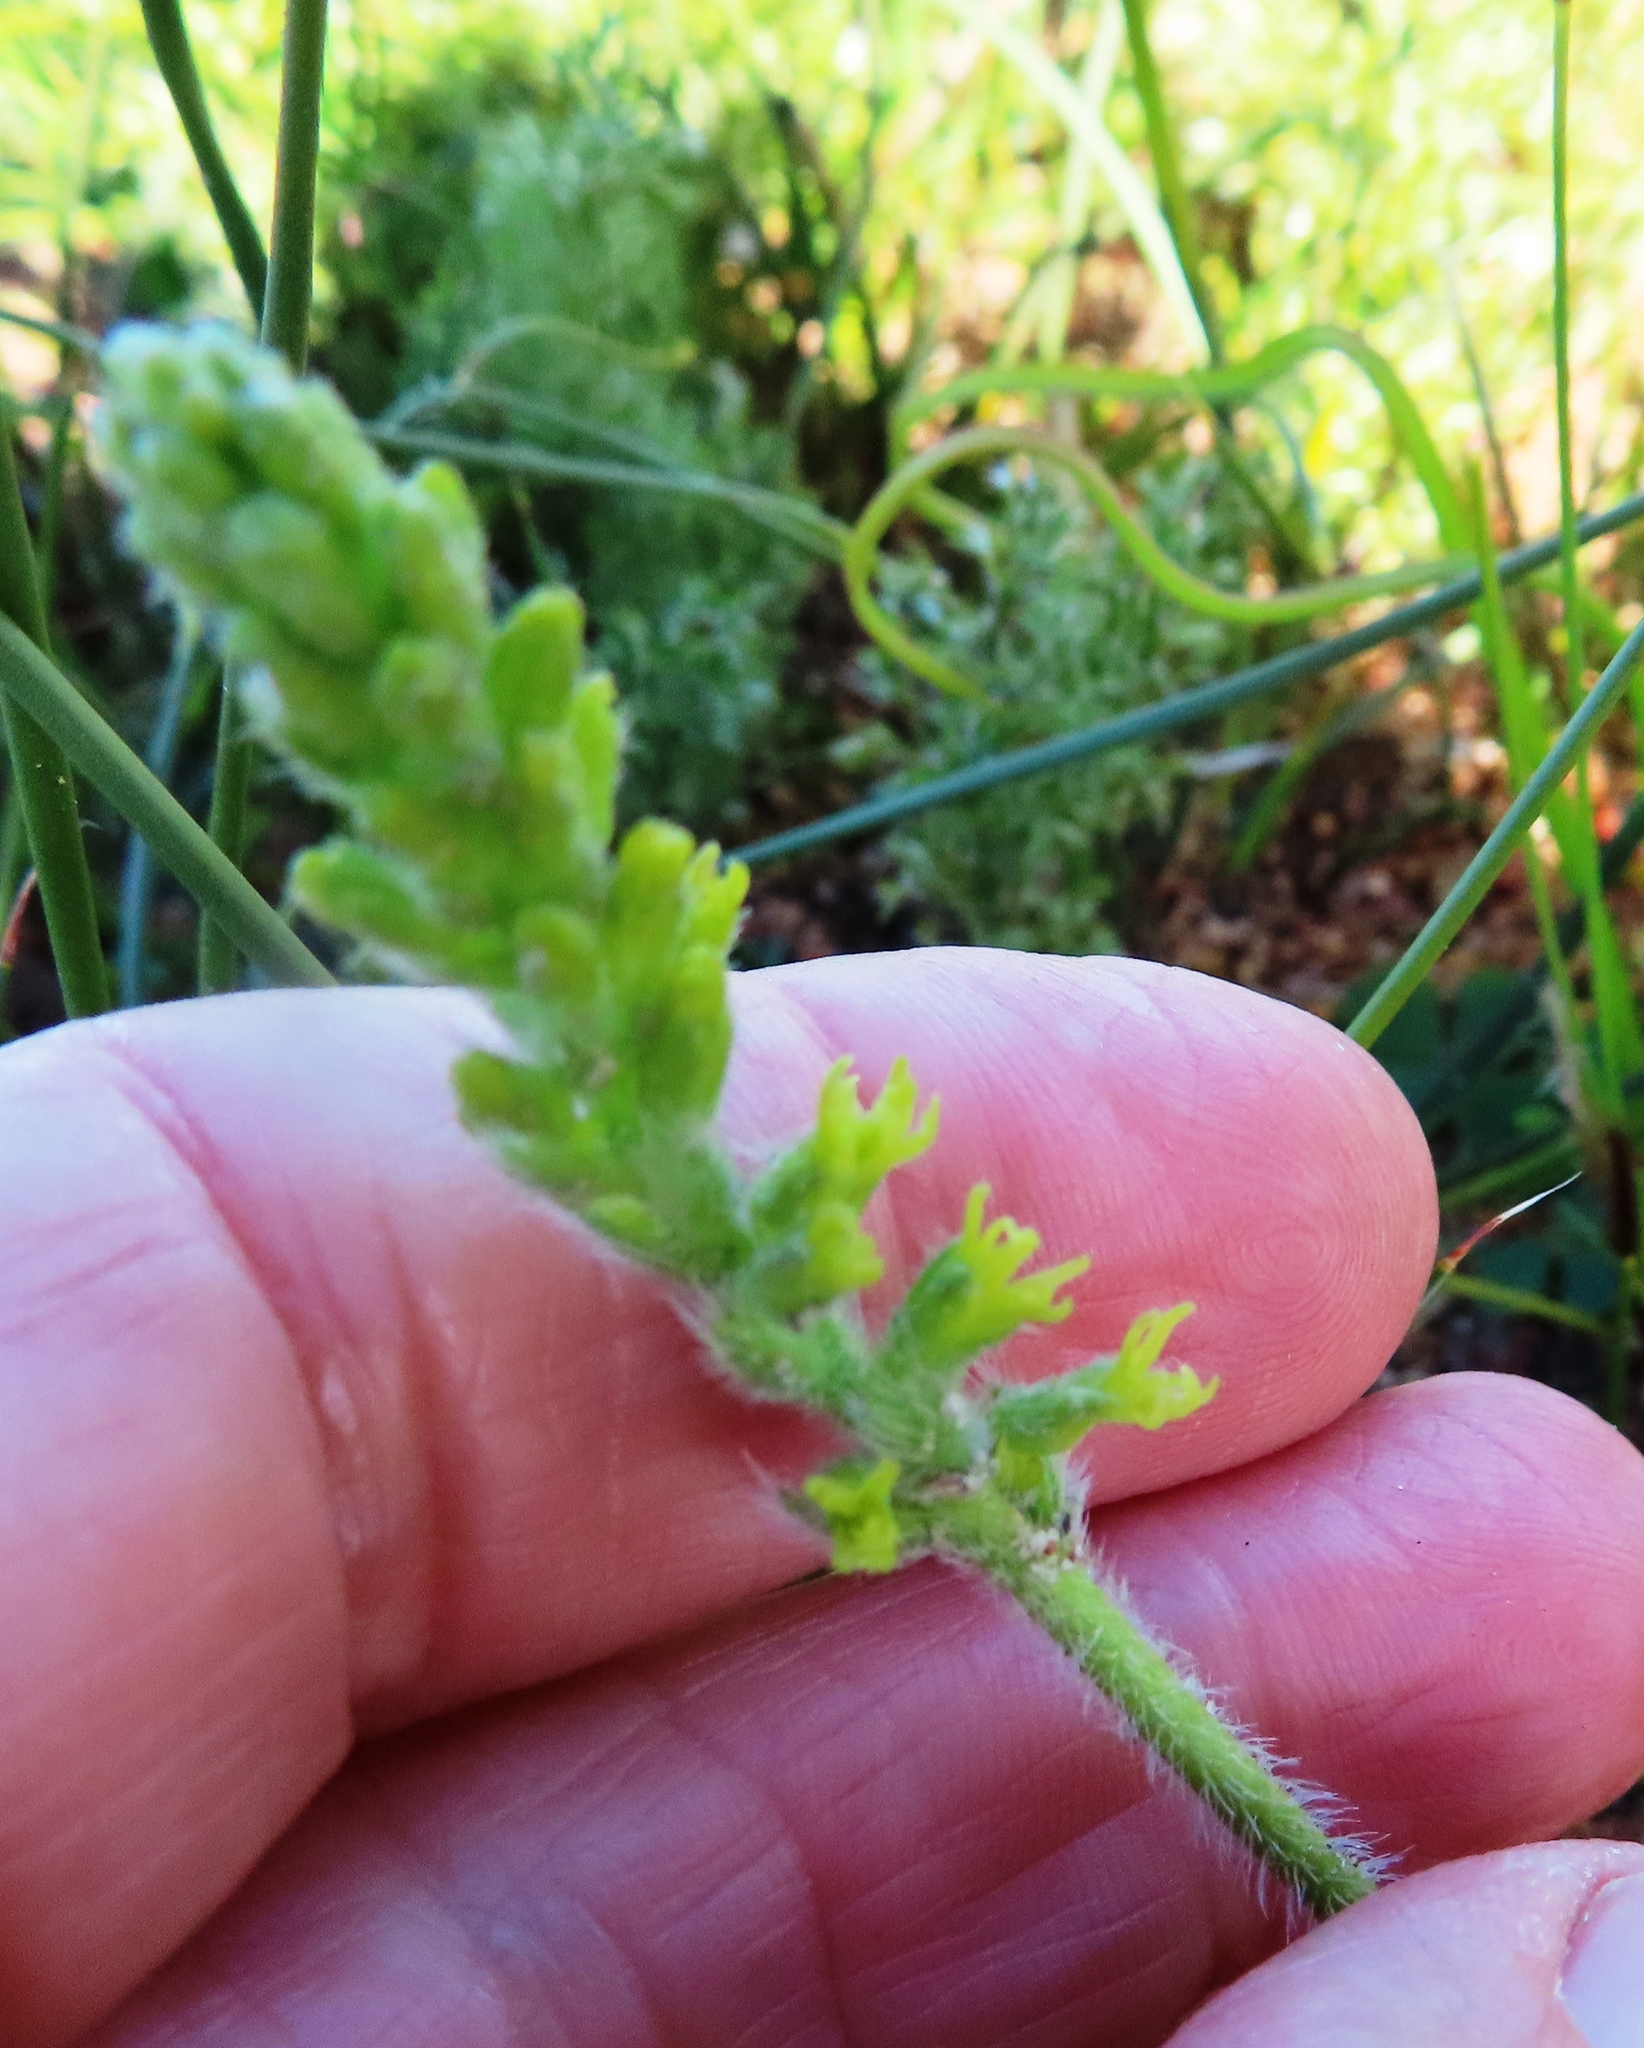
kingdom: Plantae
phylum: Tracheophyta
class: Liliopsida
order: Asparagales
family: Orchidaceae
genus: Holothrix
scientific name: Holothrix cernua
